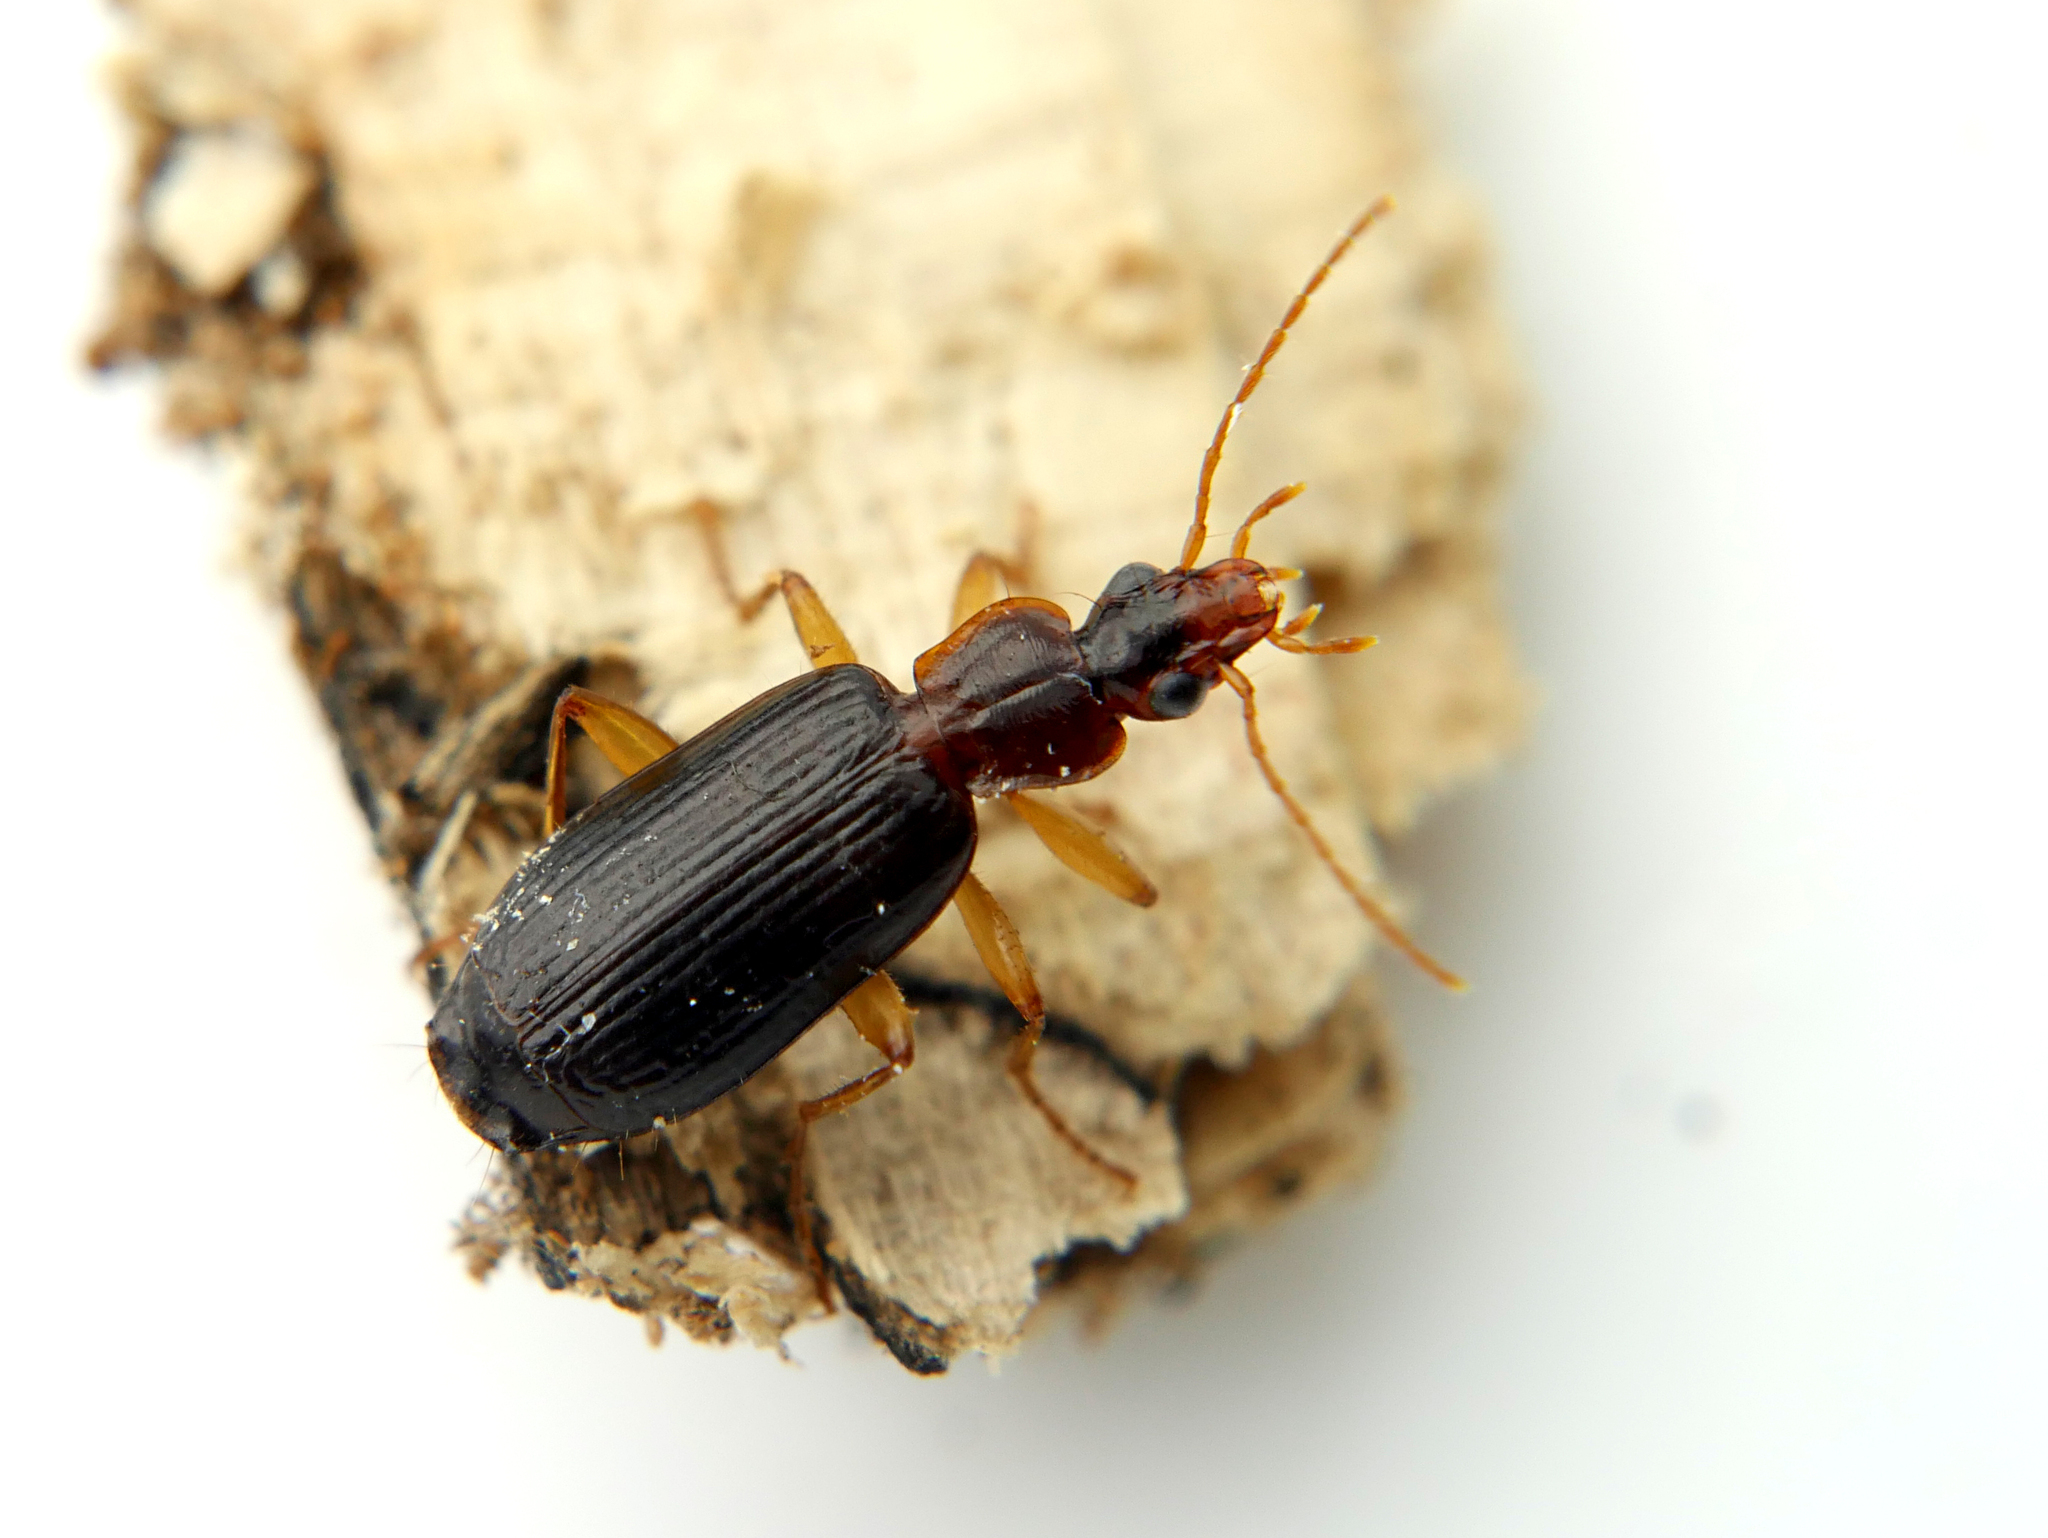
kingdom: Animalia
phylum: Arthropoda
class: Insecta
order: Coleoptera
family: Carabidae
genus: Dromius
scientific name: Dromius agilis
